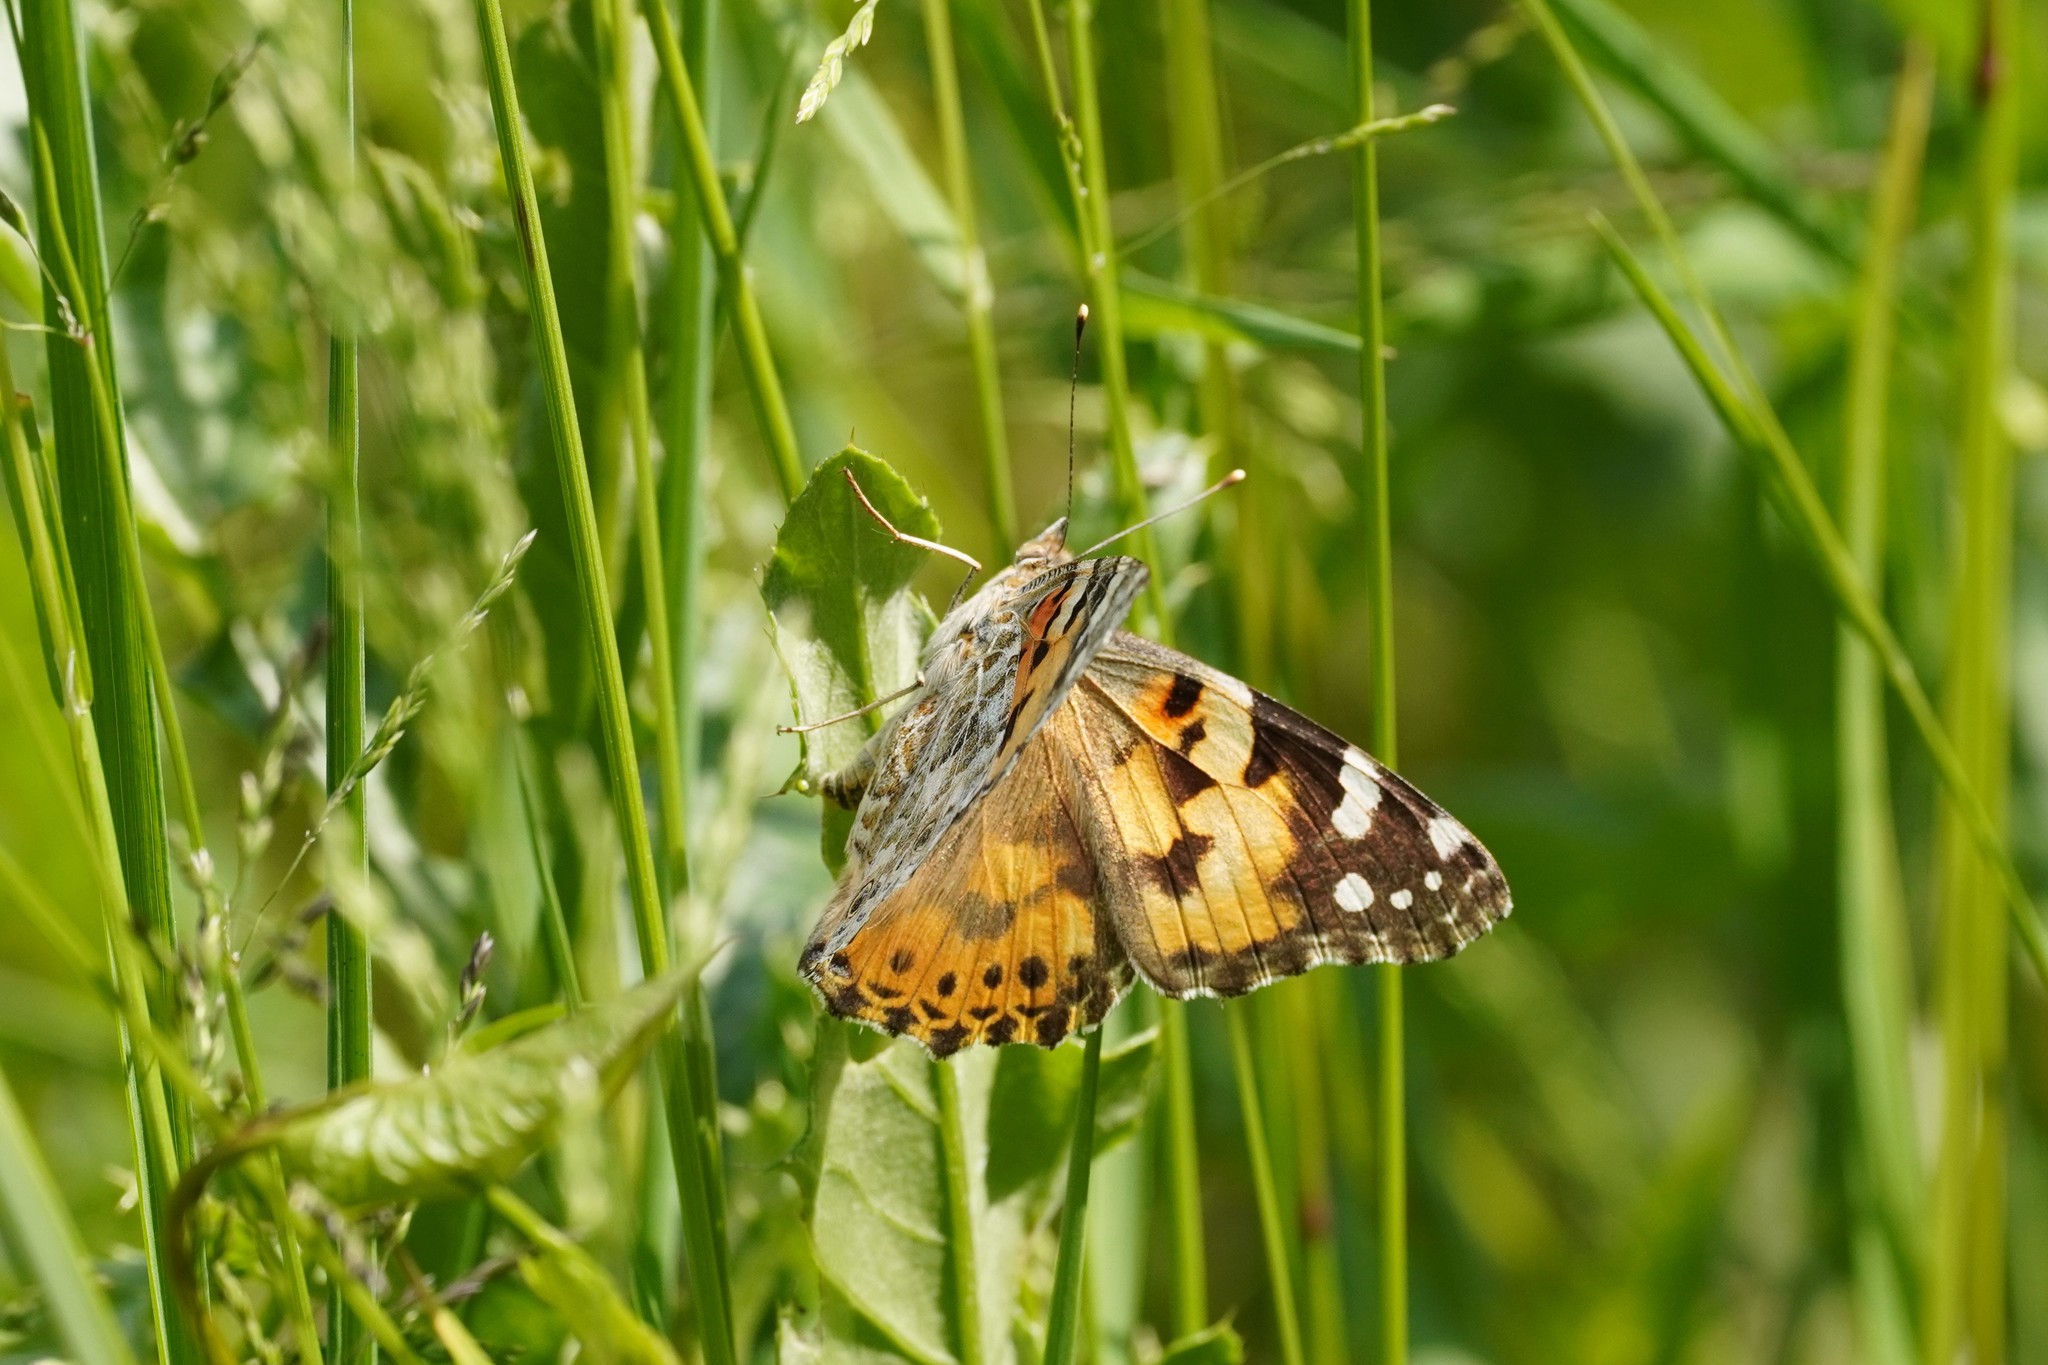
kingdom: Animalia
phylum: Arthropoda
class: Insecta
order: Lepidoptera
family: Nymphalidae
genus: Vanessa
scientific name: Vanessa cardui
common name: Painted lady
